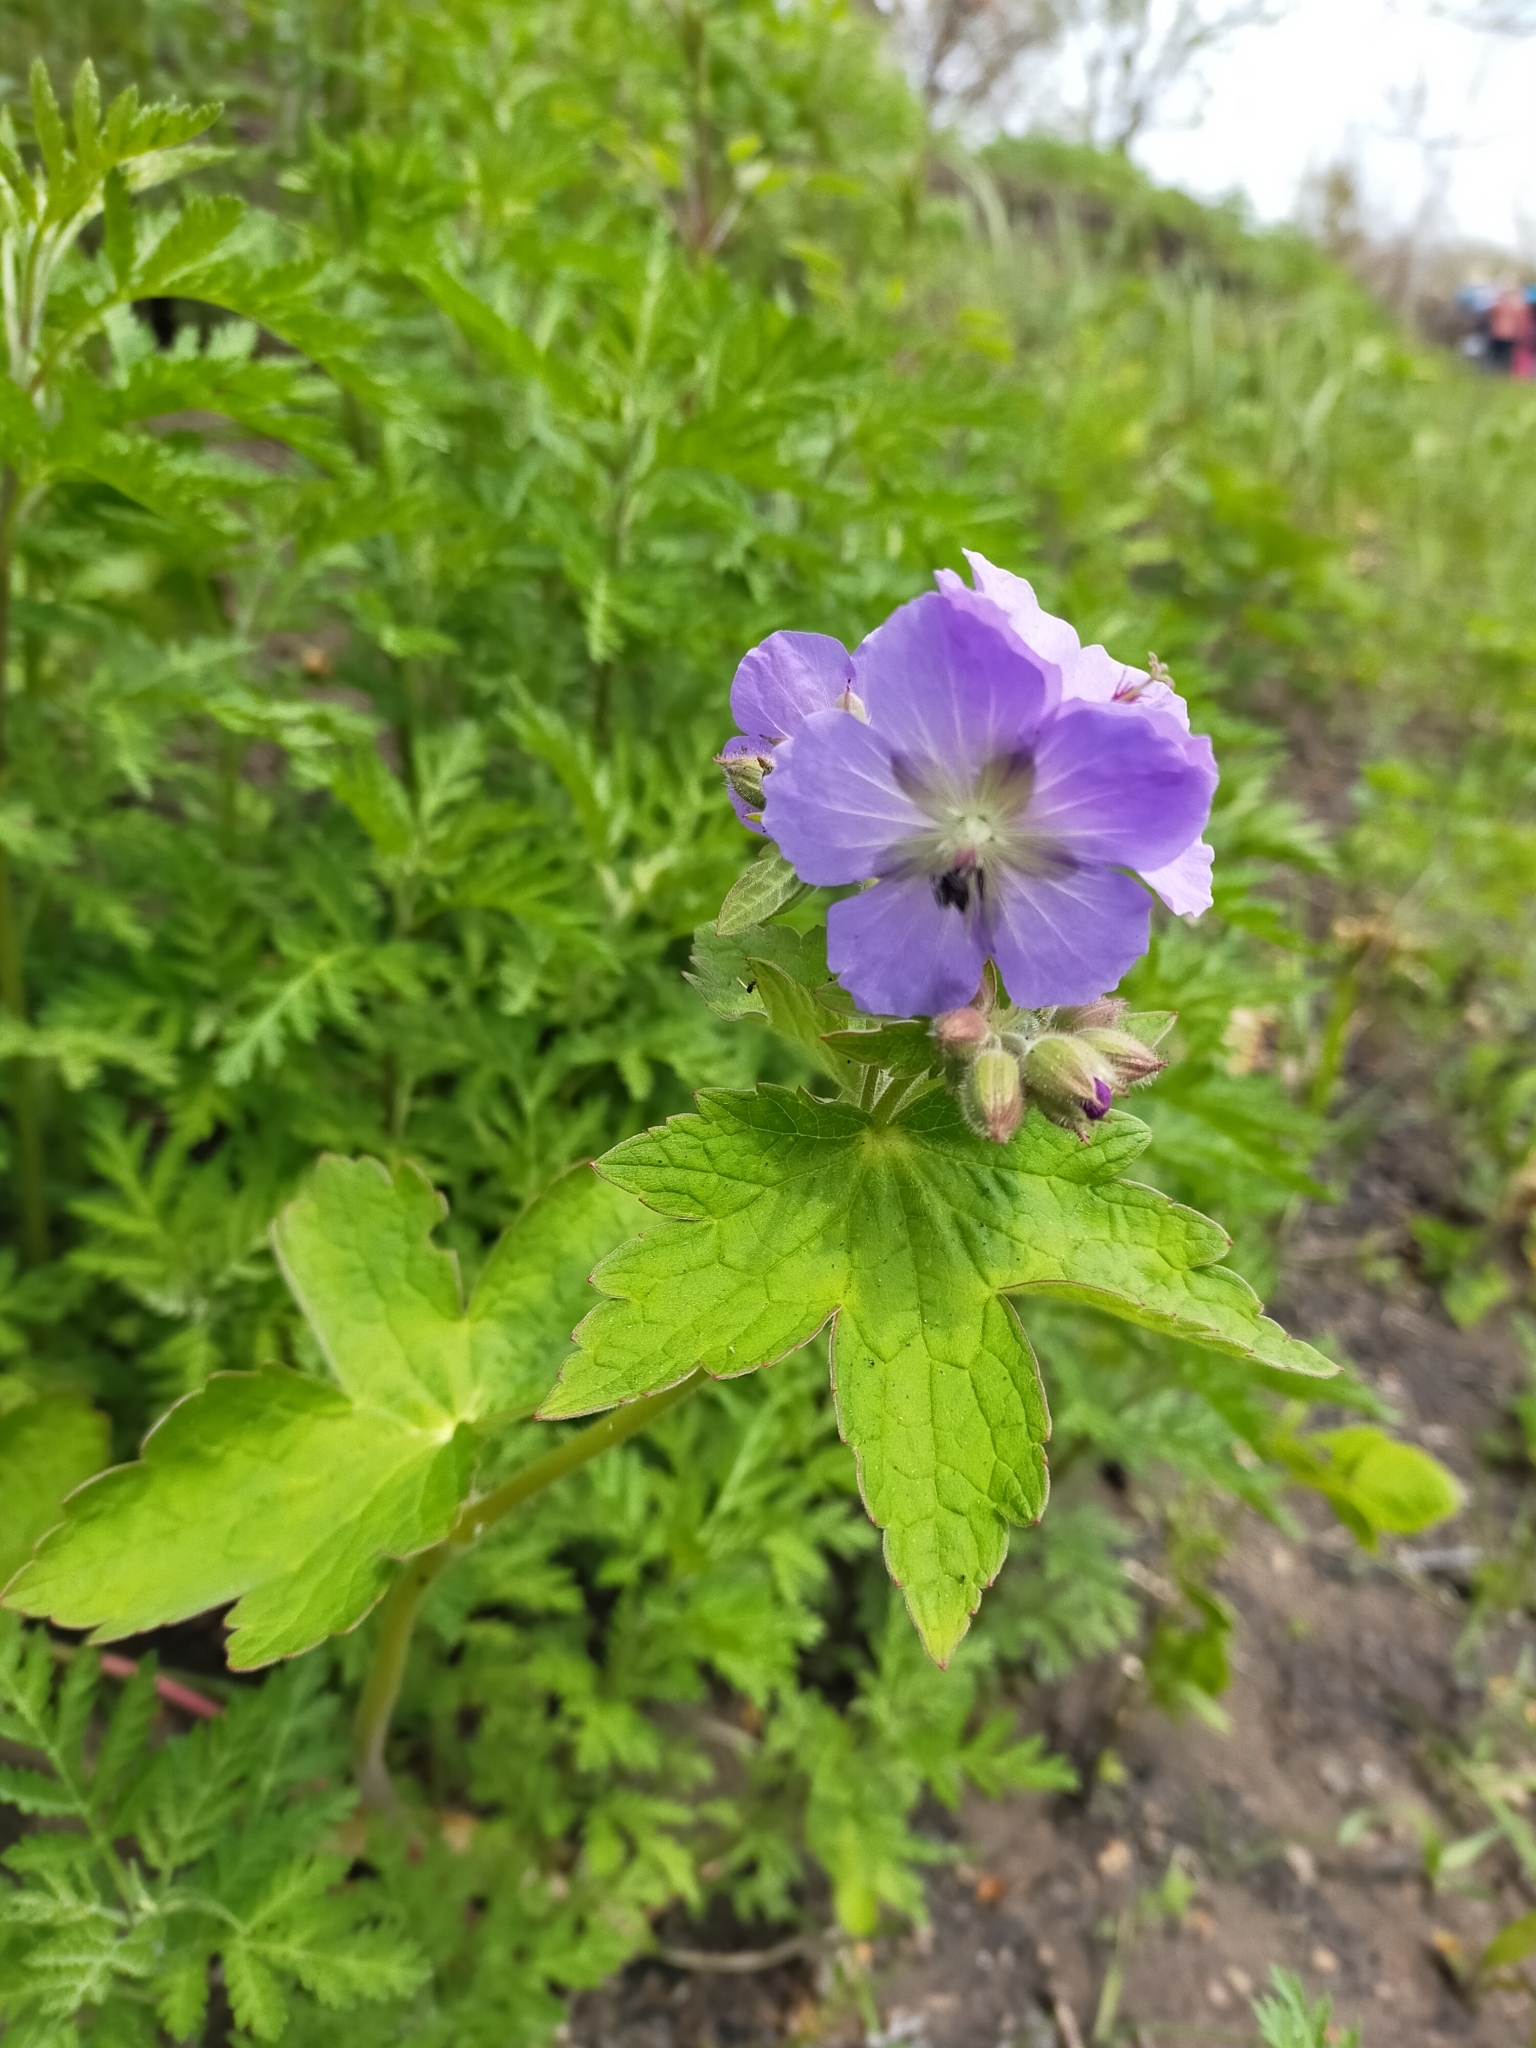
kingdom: Plantae
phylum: Tracheophyta
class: Magnoliopsida
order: Geraniales
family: Geraniaceae
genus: Geranium
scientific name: Geranium platyanthum
